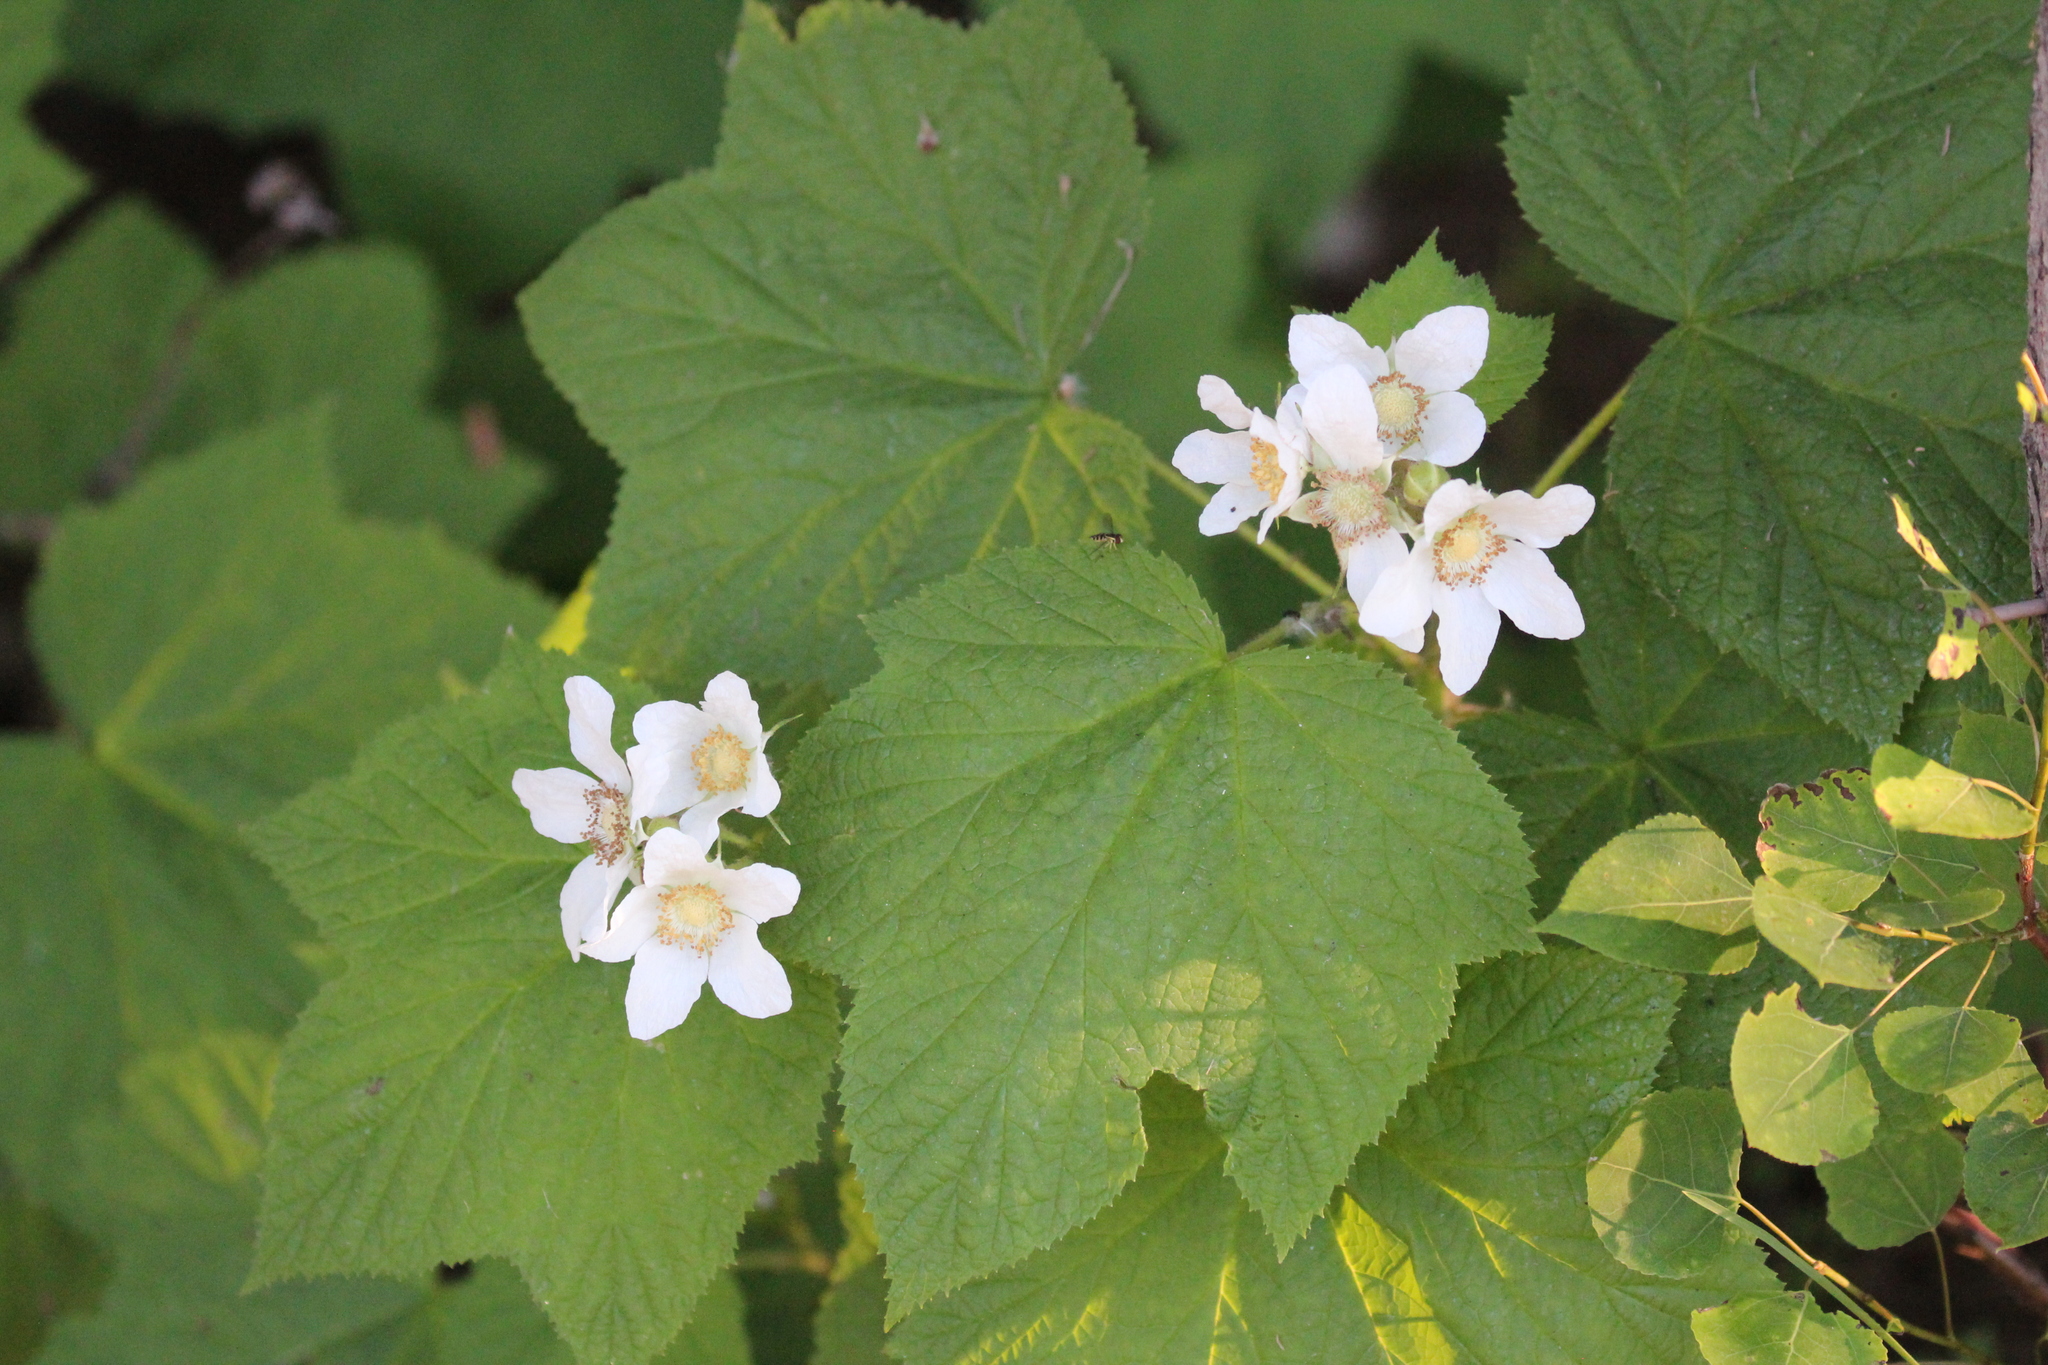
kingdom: Plantae
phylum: Tracheophyta
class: Magnoliopsida
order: Rosales
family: Rosaceae
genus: Rubus
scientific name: Rubus parviflorus
